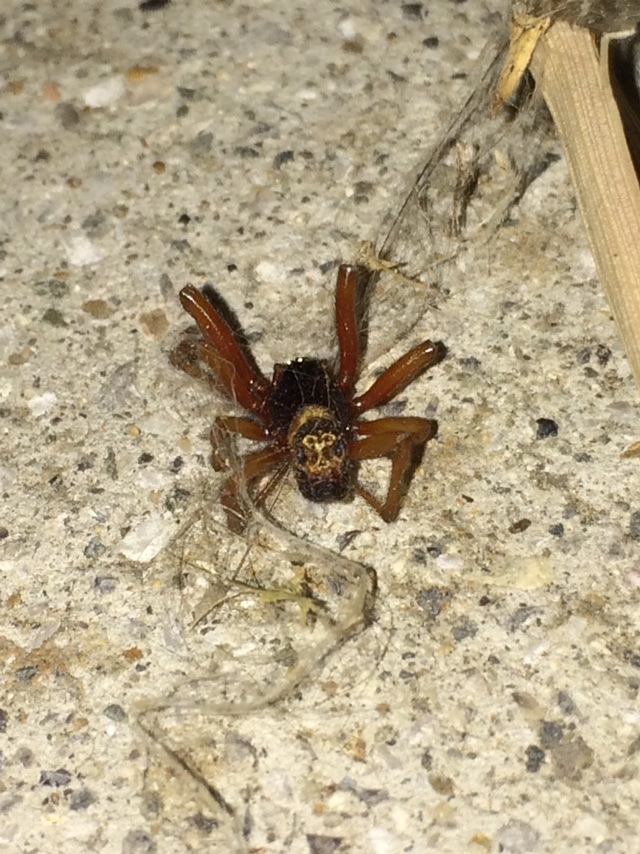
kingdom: Animalia
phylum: Arthropoda
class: Arachnida
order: Araneae
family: Theridiidae
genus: Steatoda
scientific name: Steatoda nobilis
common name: Cobweb weaver
